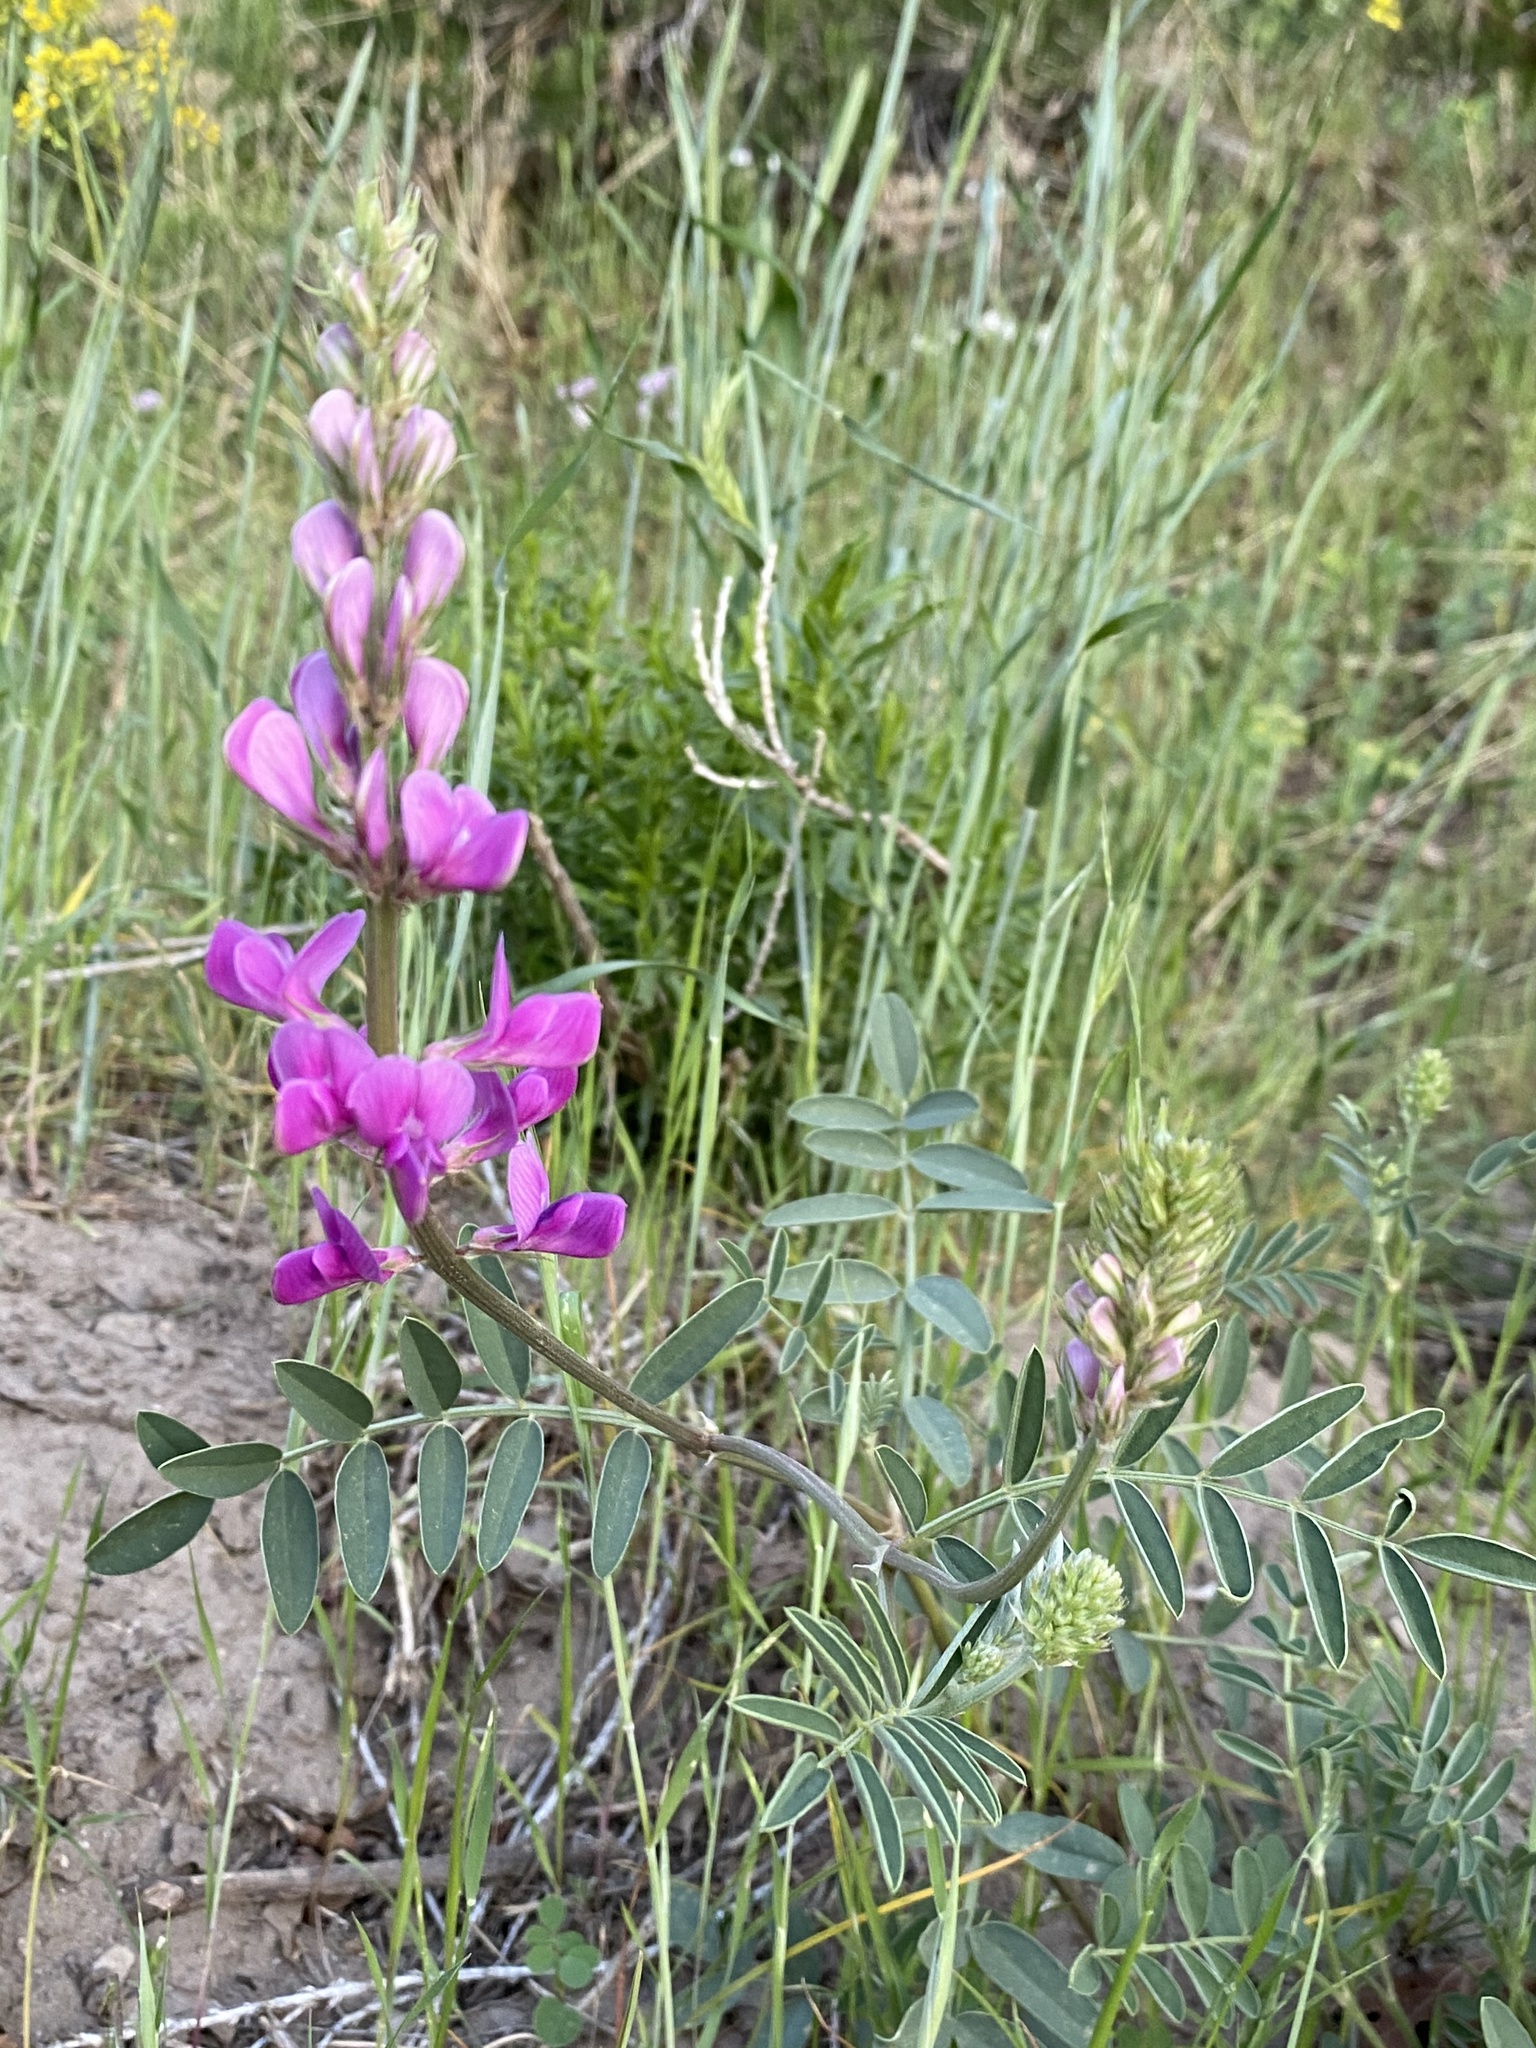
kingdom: Plantae
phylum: Tracheophyta
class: Magnoliopsida
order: Fabales
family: Fabaceae
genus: Hedysarum
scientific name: Hedysarum boreale
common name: Northern sweet-vetch
